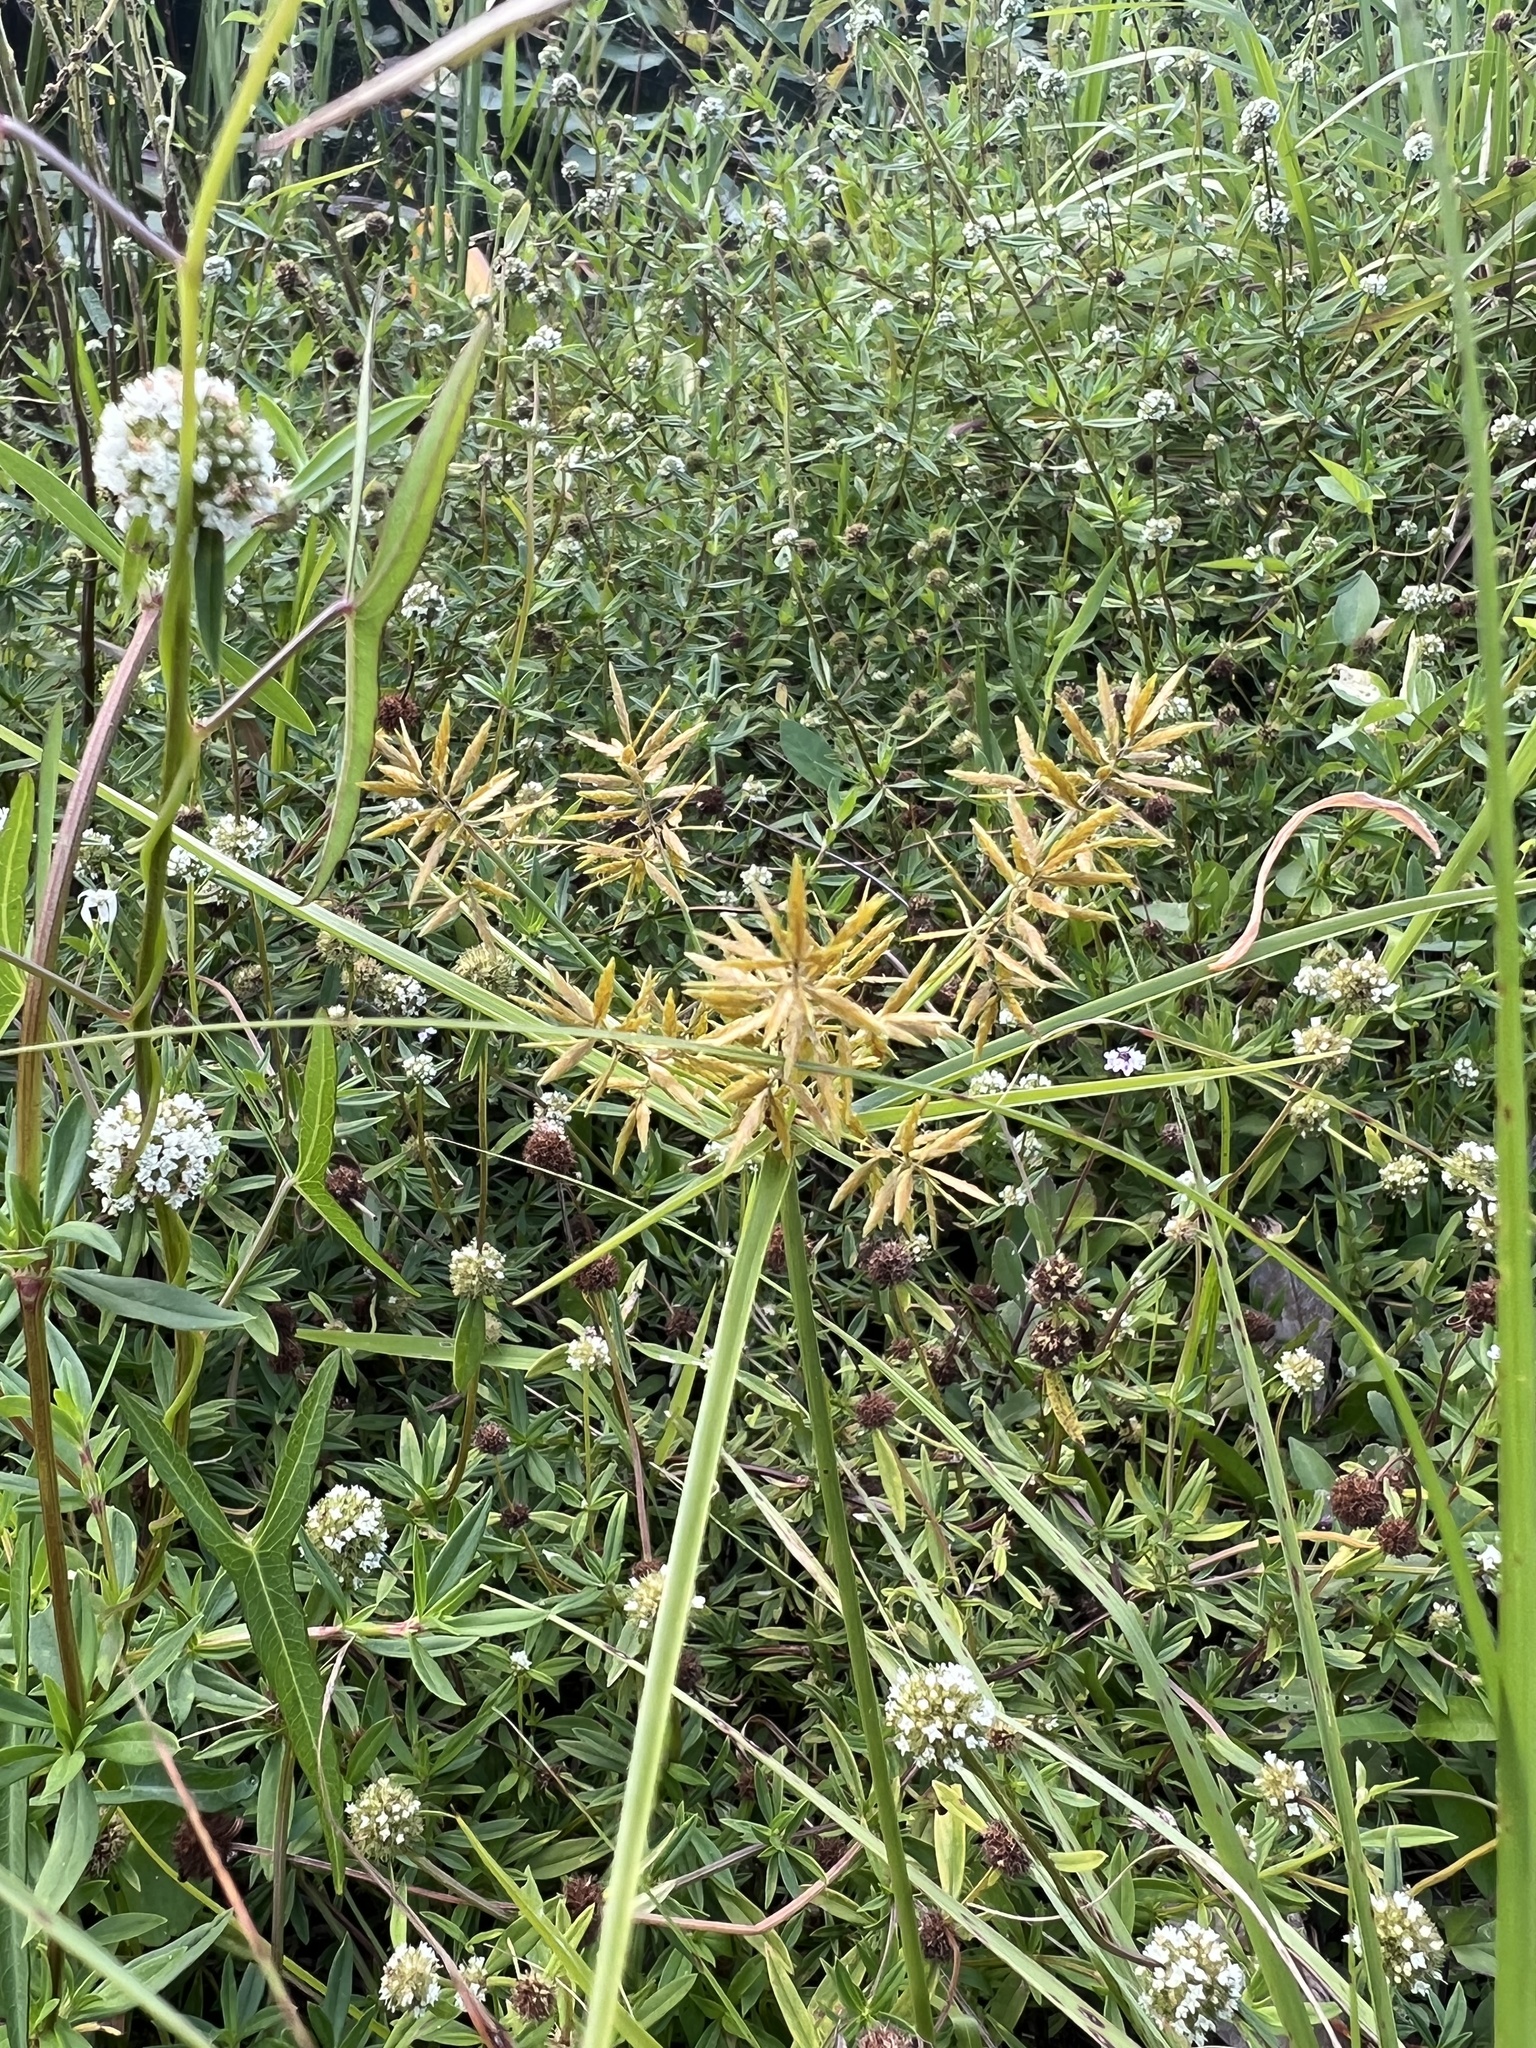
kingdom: Plantae
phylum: Tracheophyta
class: Liliopsida
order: Poales
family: Cyperaceae
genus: Cyperus
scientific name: Cyperus polystachyos
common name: Bunchy flat sedge
